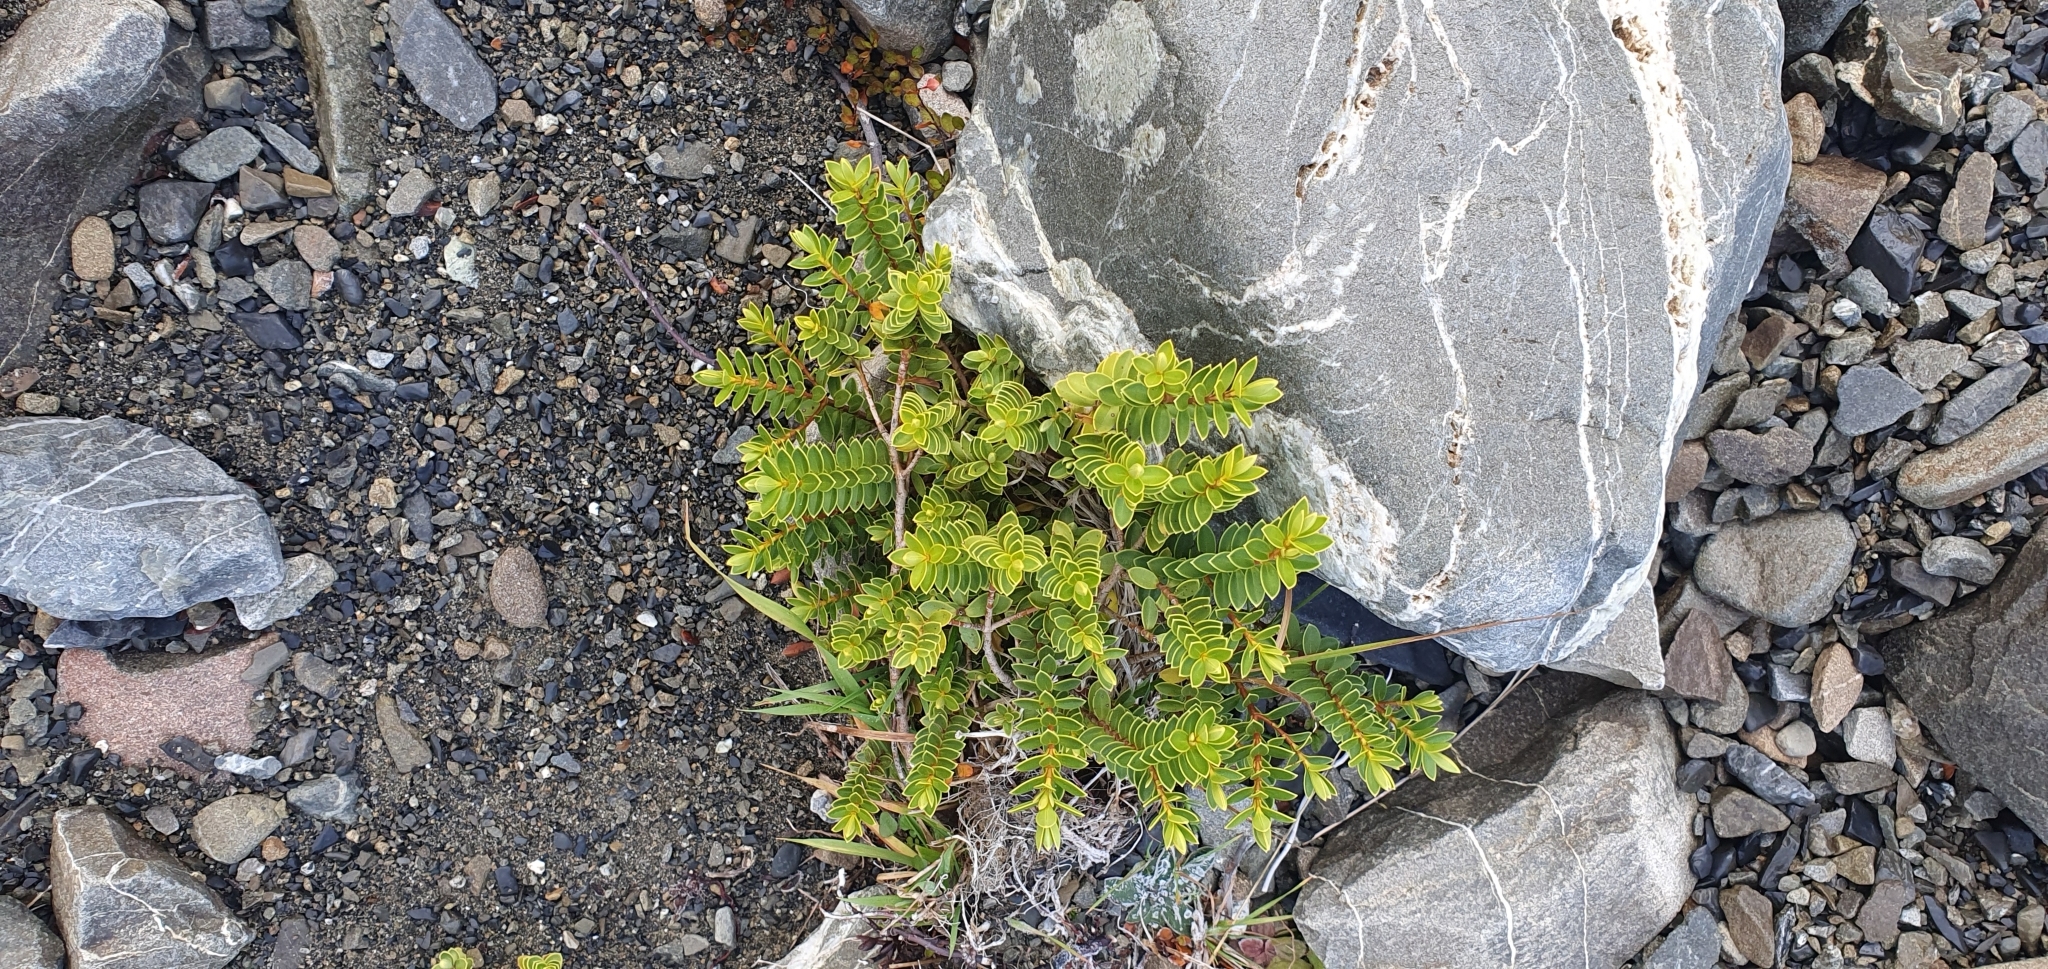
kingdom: Plantae
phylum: Tracheophyta
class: Magnoliopsida
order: Lamiales
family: Plantaginaceae
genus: Veronica
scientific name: Veronica brachysiphon
